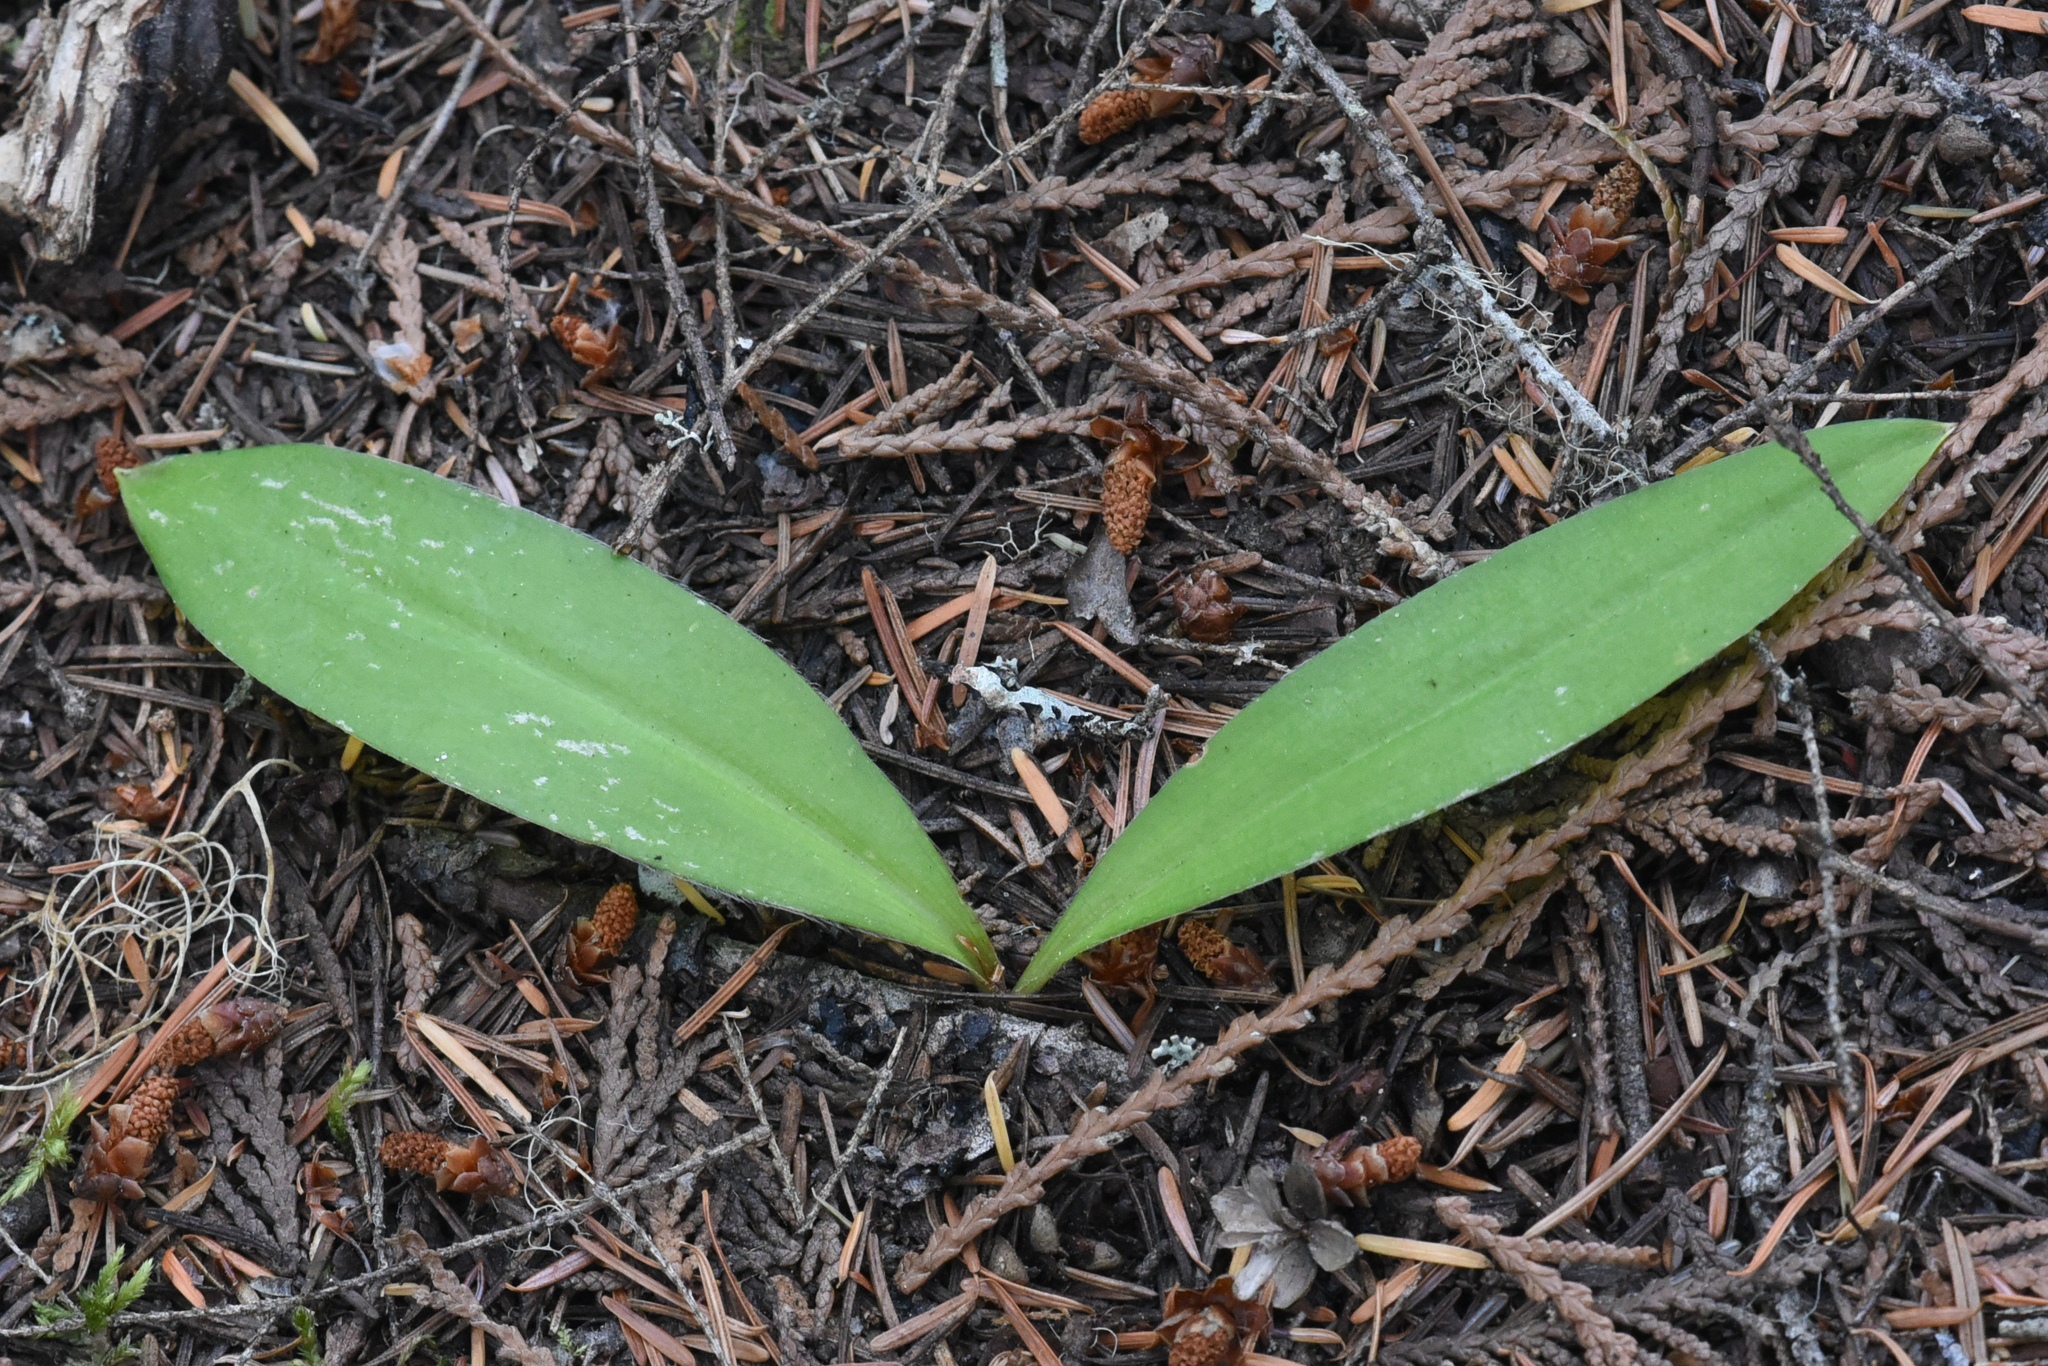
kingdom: Plantae
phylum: Tracheophyta
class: Liliopsida
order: Liliales
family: Liliaceae
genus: Clintonia
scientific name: Clintonia uniflora
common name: Queen's cup
